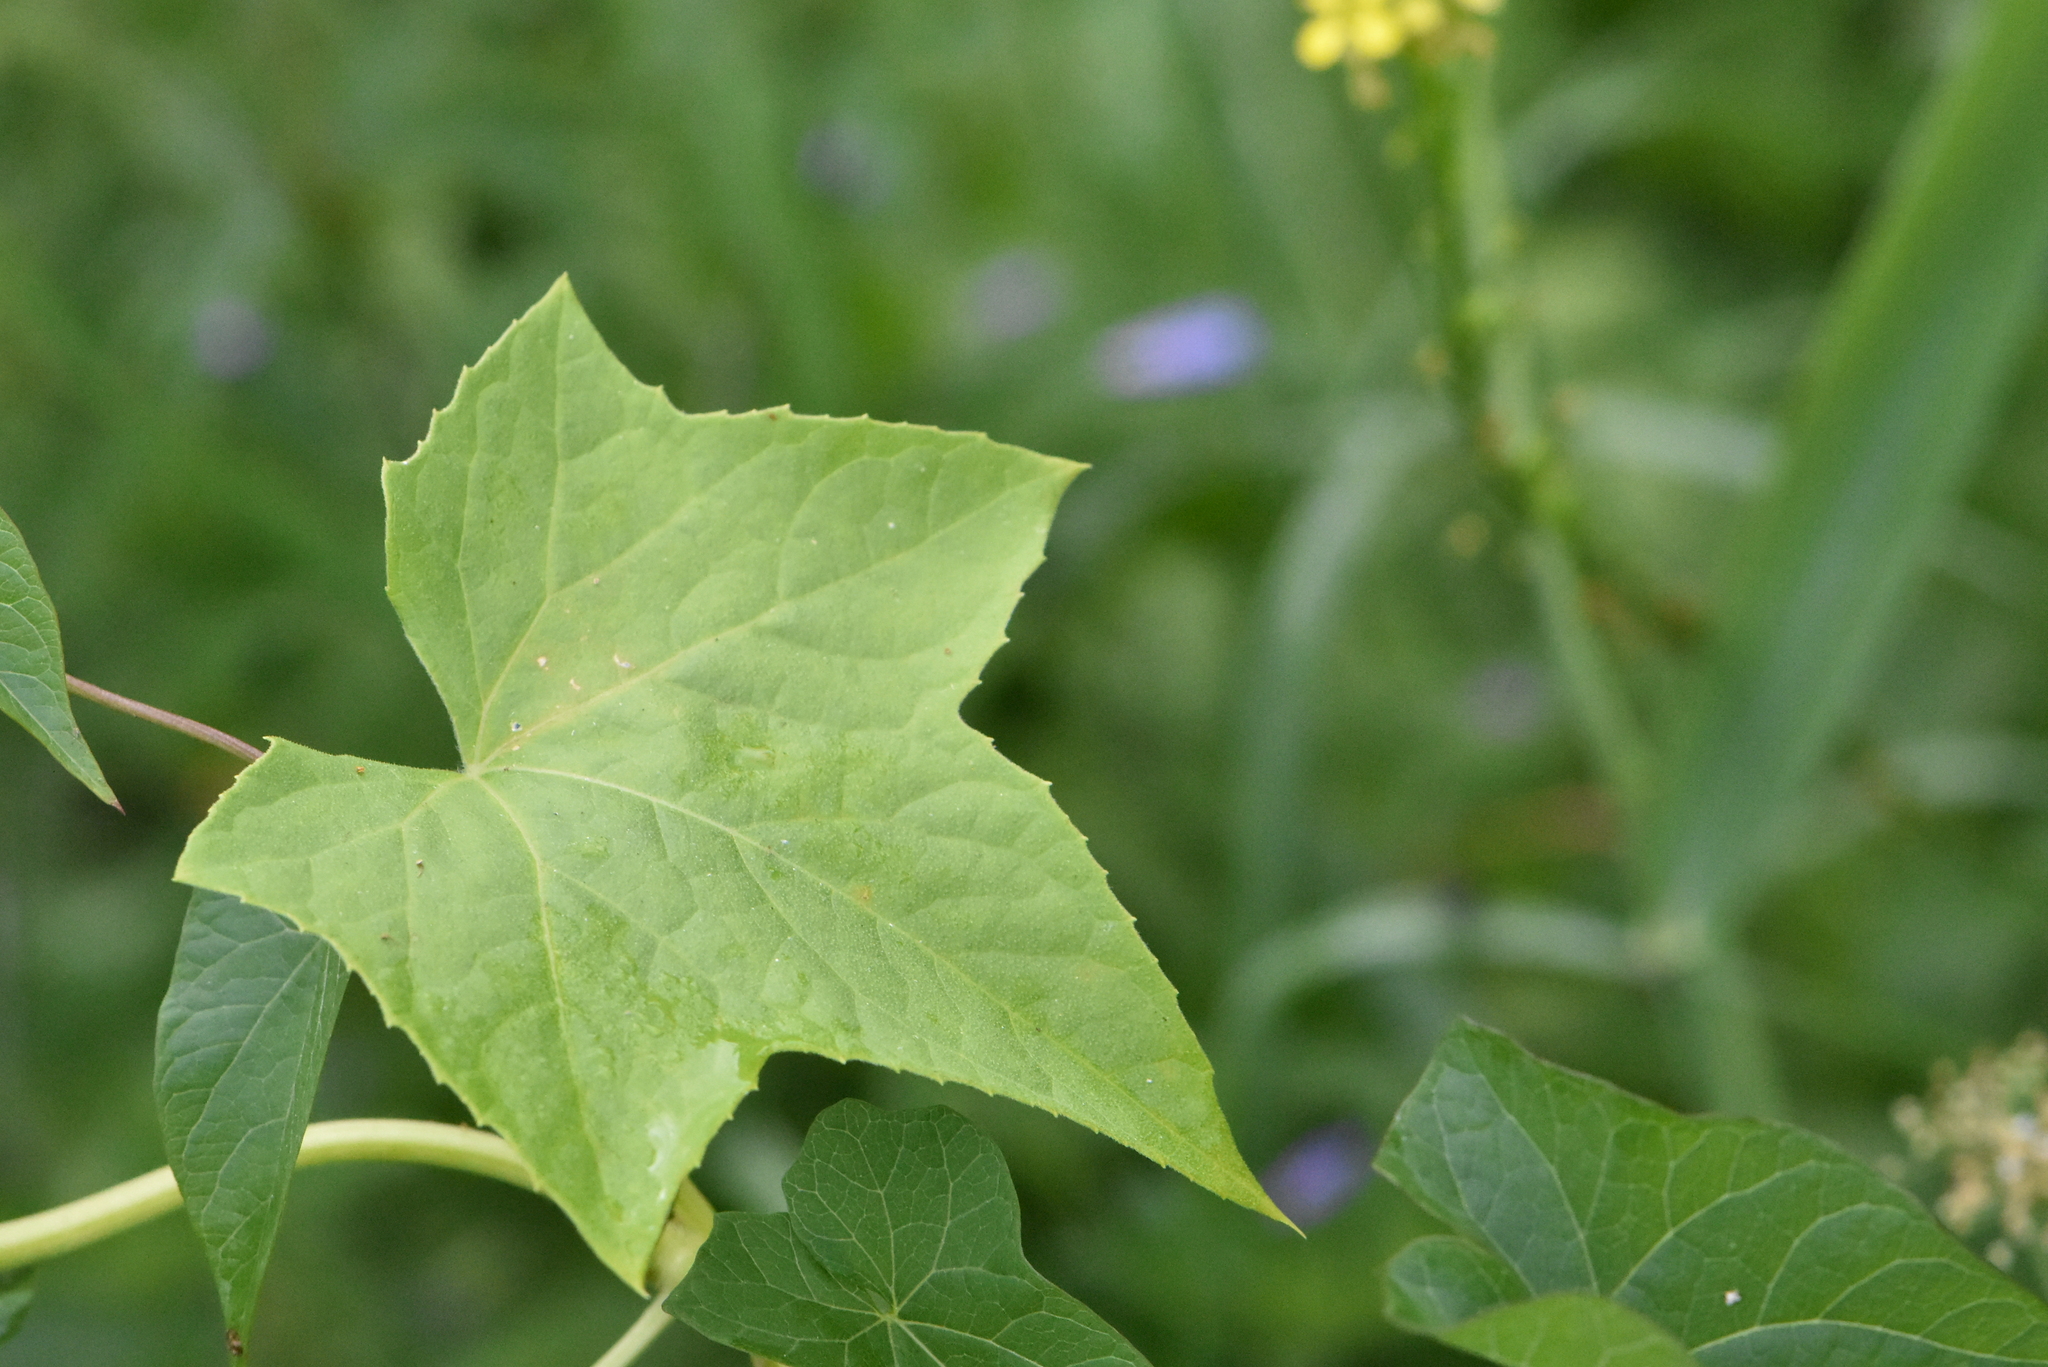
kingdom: Plantae
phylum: Tracheophyta
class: Magnoliopsida
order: Cucurbitales
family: Cucurbitaceae
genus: Echinocystis
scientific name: Echinocystis lobata
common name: Wild cucumber
